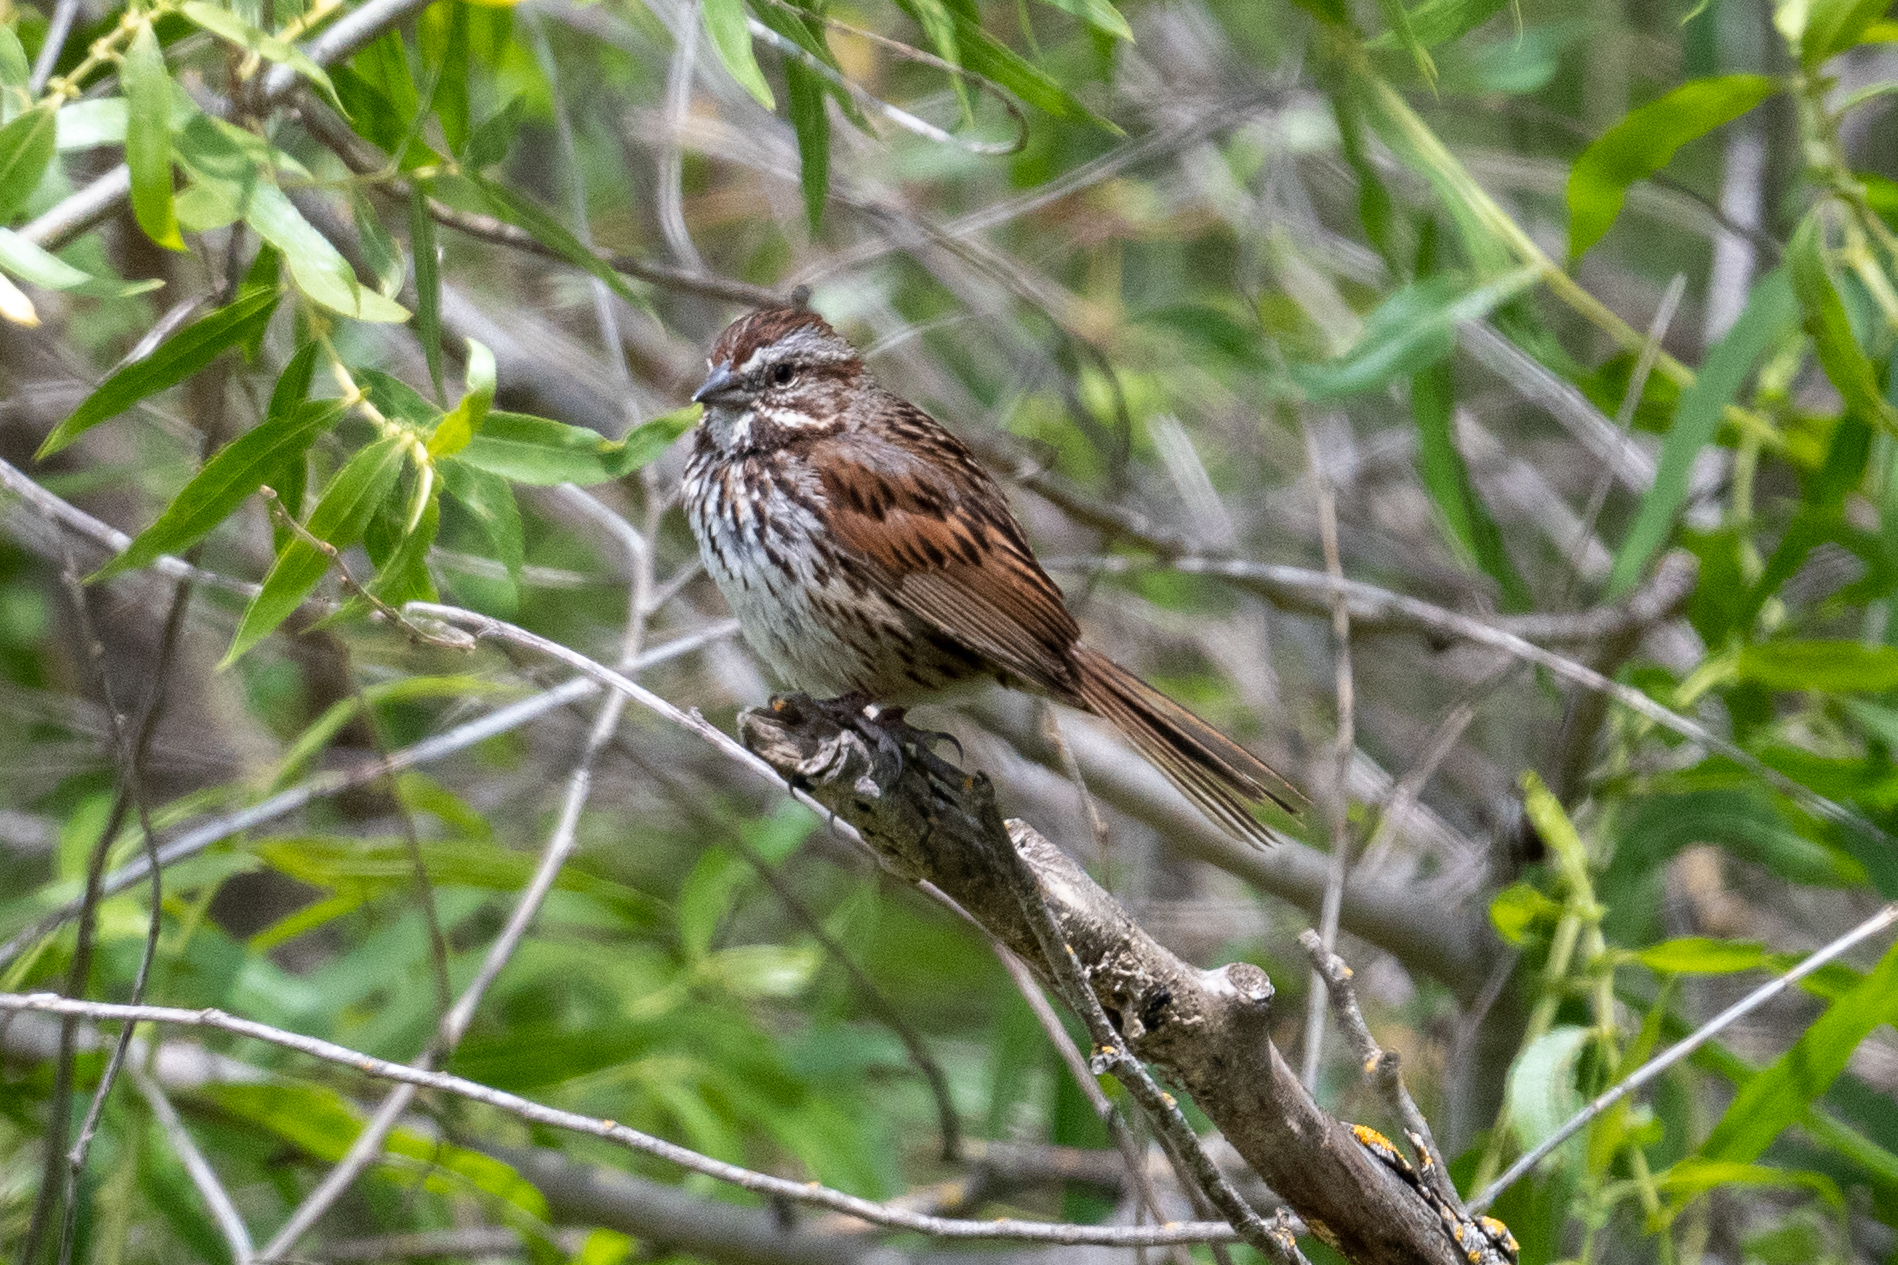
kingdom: Animalia
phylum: Chordata
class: Aves
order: Passeriformes
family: Passerellidae
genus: Melospiza
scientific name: Melospiza melodia
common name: Song sparrow
